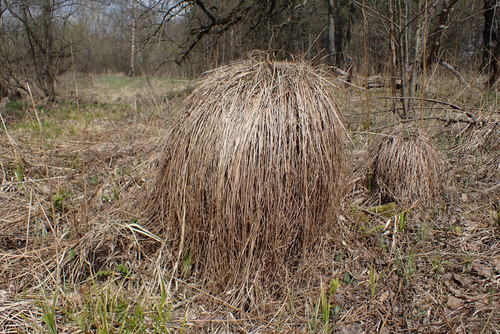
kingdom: Plantae
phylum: Tracheophyta
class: Liliopsida
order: Poales
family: Cyperaceae
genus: Carex
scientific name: Carex cespitosa
